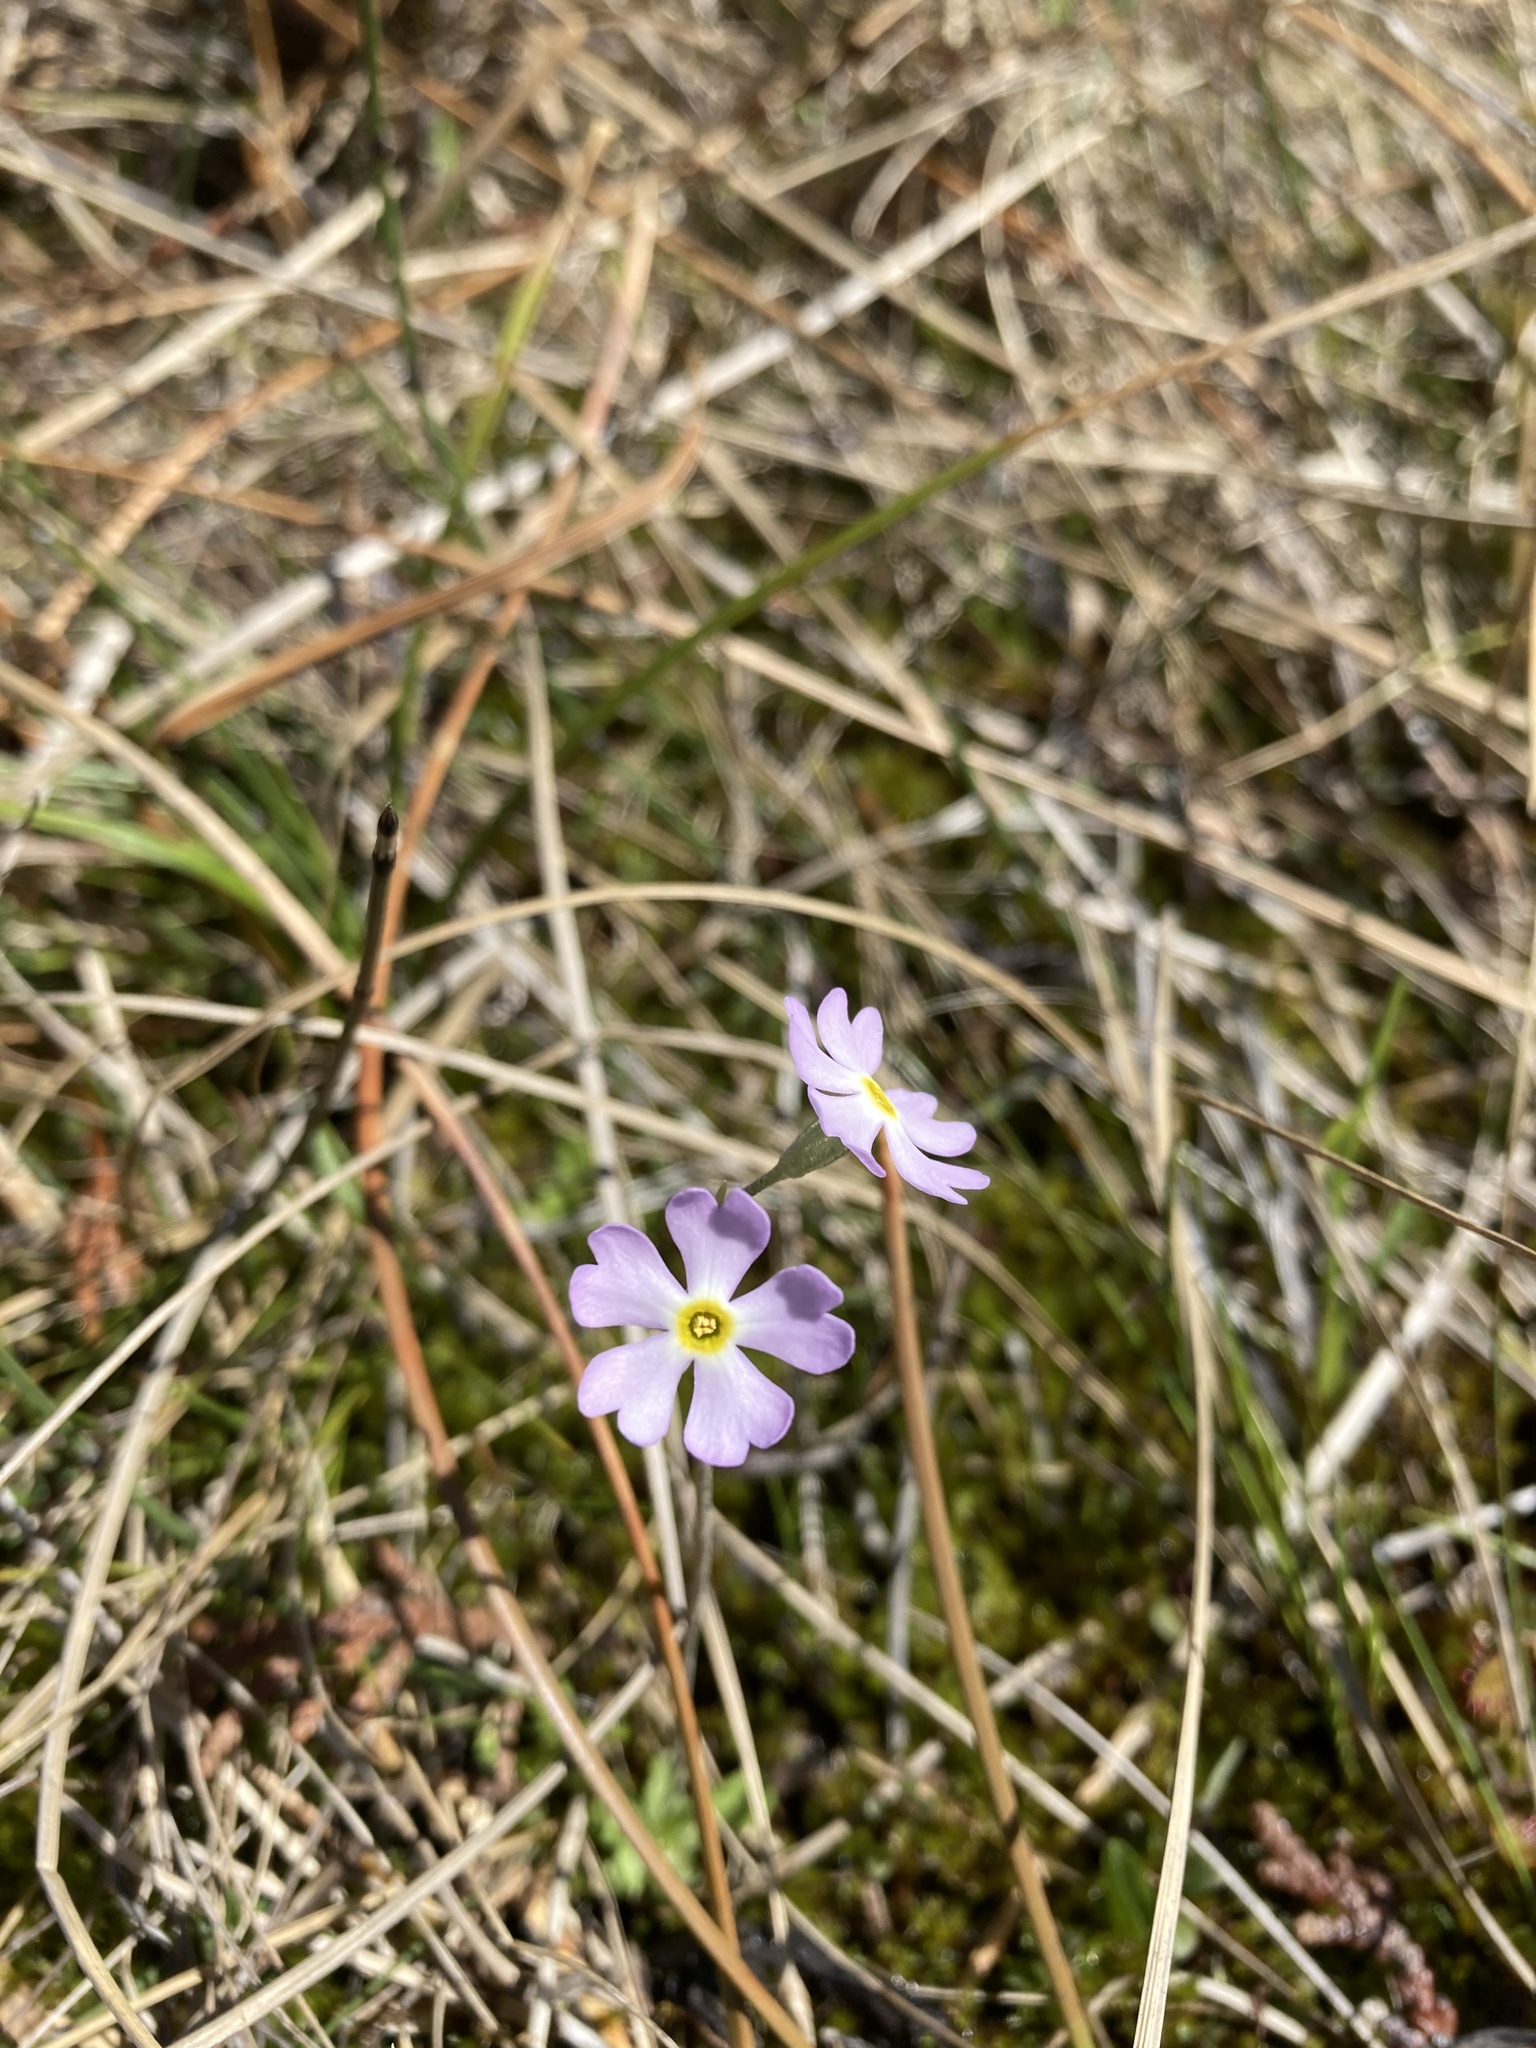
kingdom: Plantae
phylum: Tracheophyta
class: Magnoliopsida
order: Ericales
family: Primulaceae
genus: Primula
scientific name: Primula mistassinica
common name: Bird's-eye primrose
